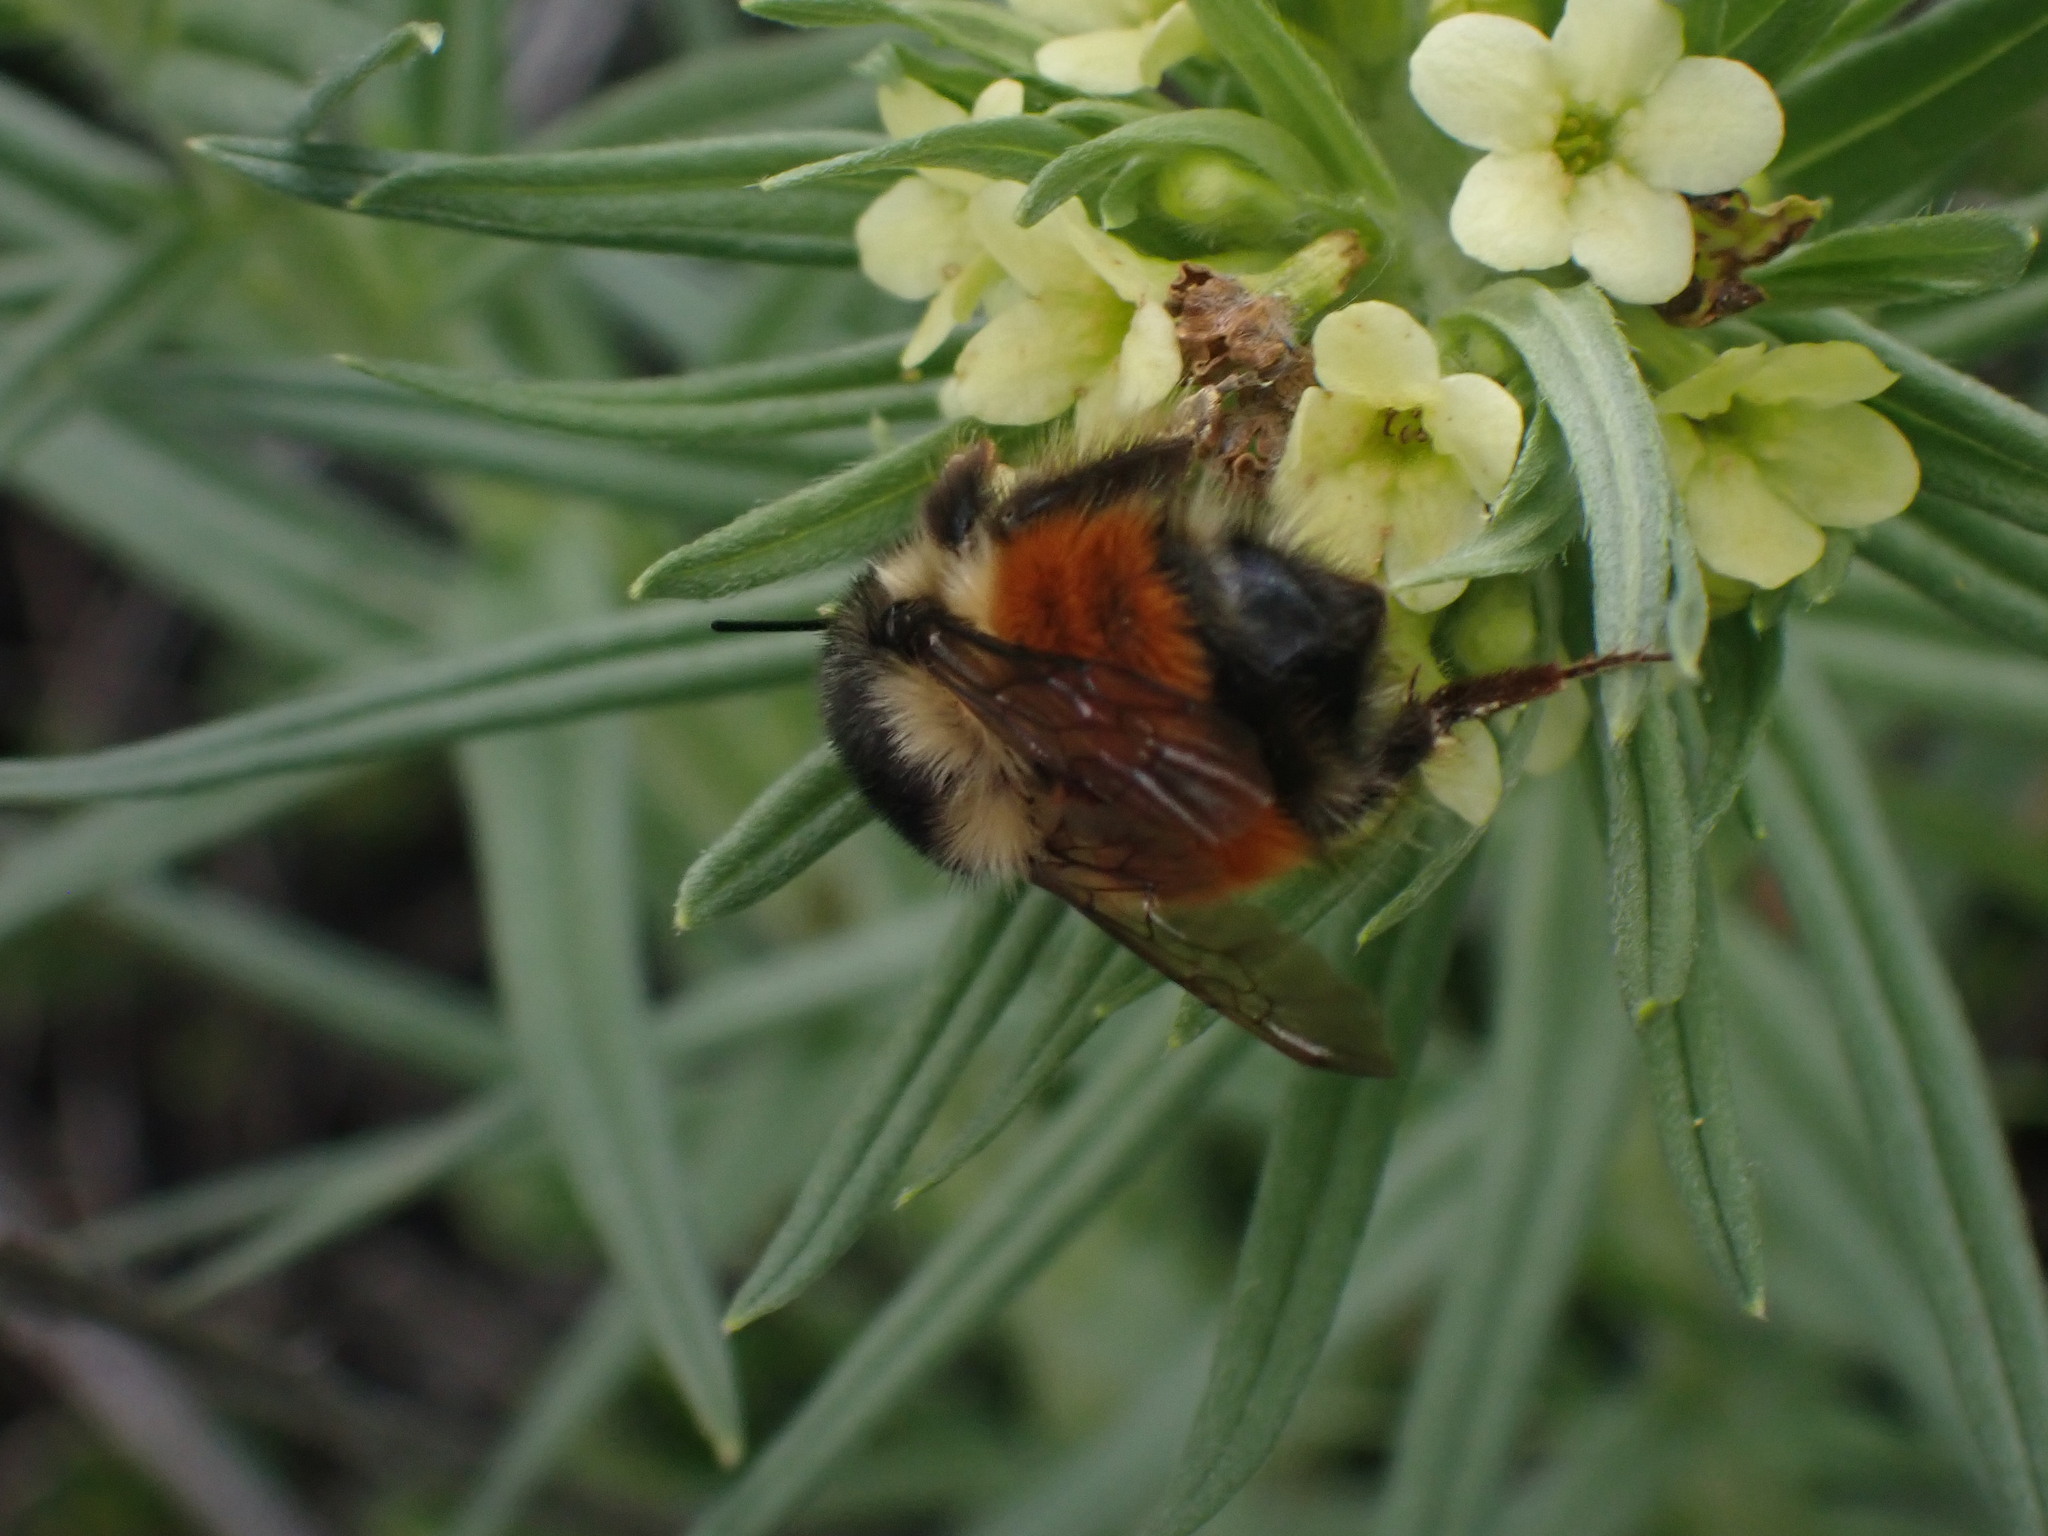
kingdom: Animalia
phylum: Arthropoda
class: Insecta
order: Hymenoptera
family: Apidae
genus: Bombus
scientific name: Bombus melanopygus
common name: Black tail bumble bee
